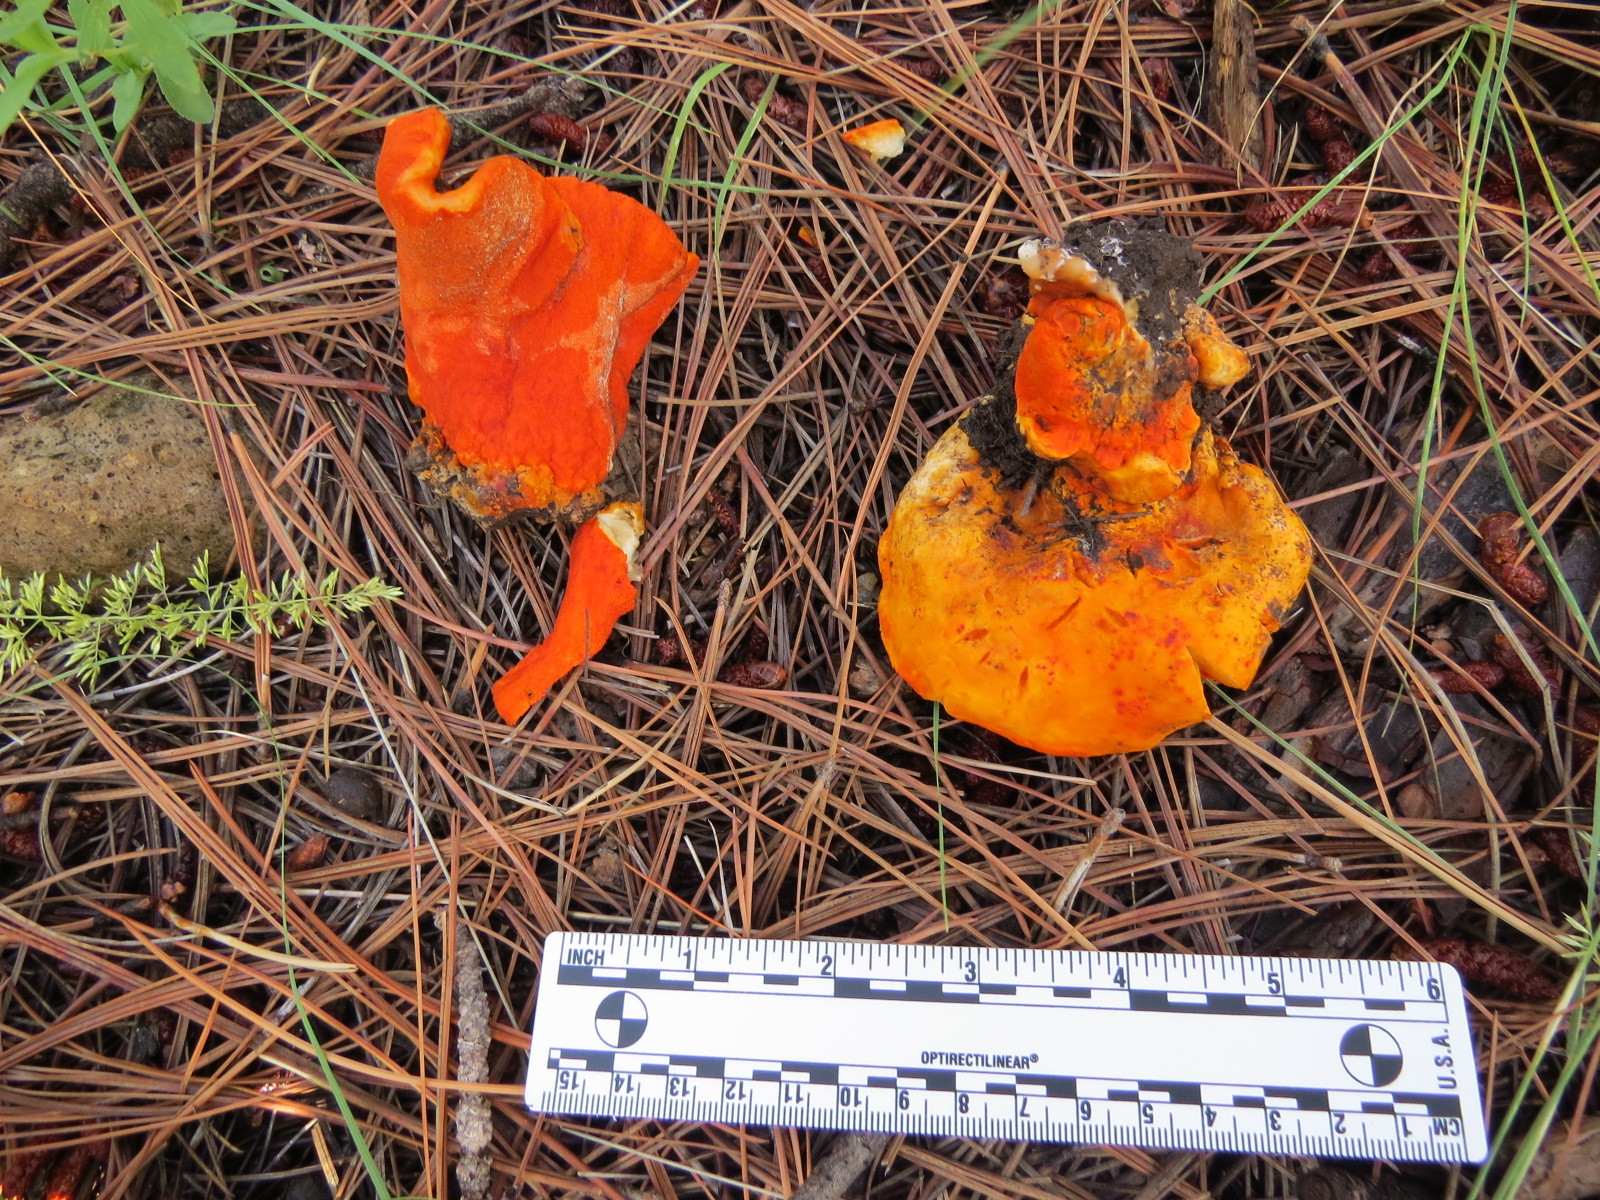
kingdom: Fungi
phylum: Ascomycota
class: Sordariomycetes
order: Hypocreales
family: Hypocreaceae
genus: Hypomyces
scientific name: Hypomyces lactifluorum
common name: Lobster mushroom
